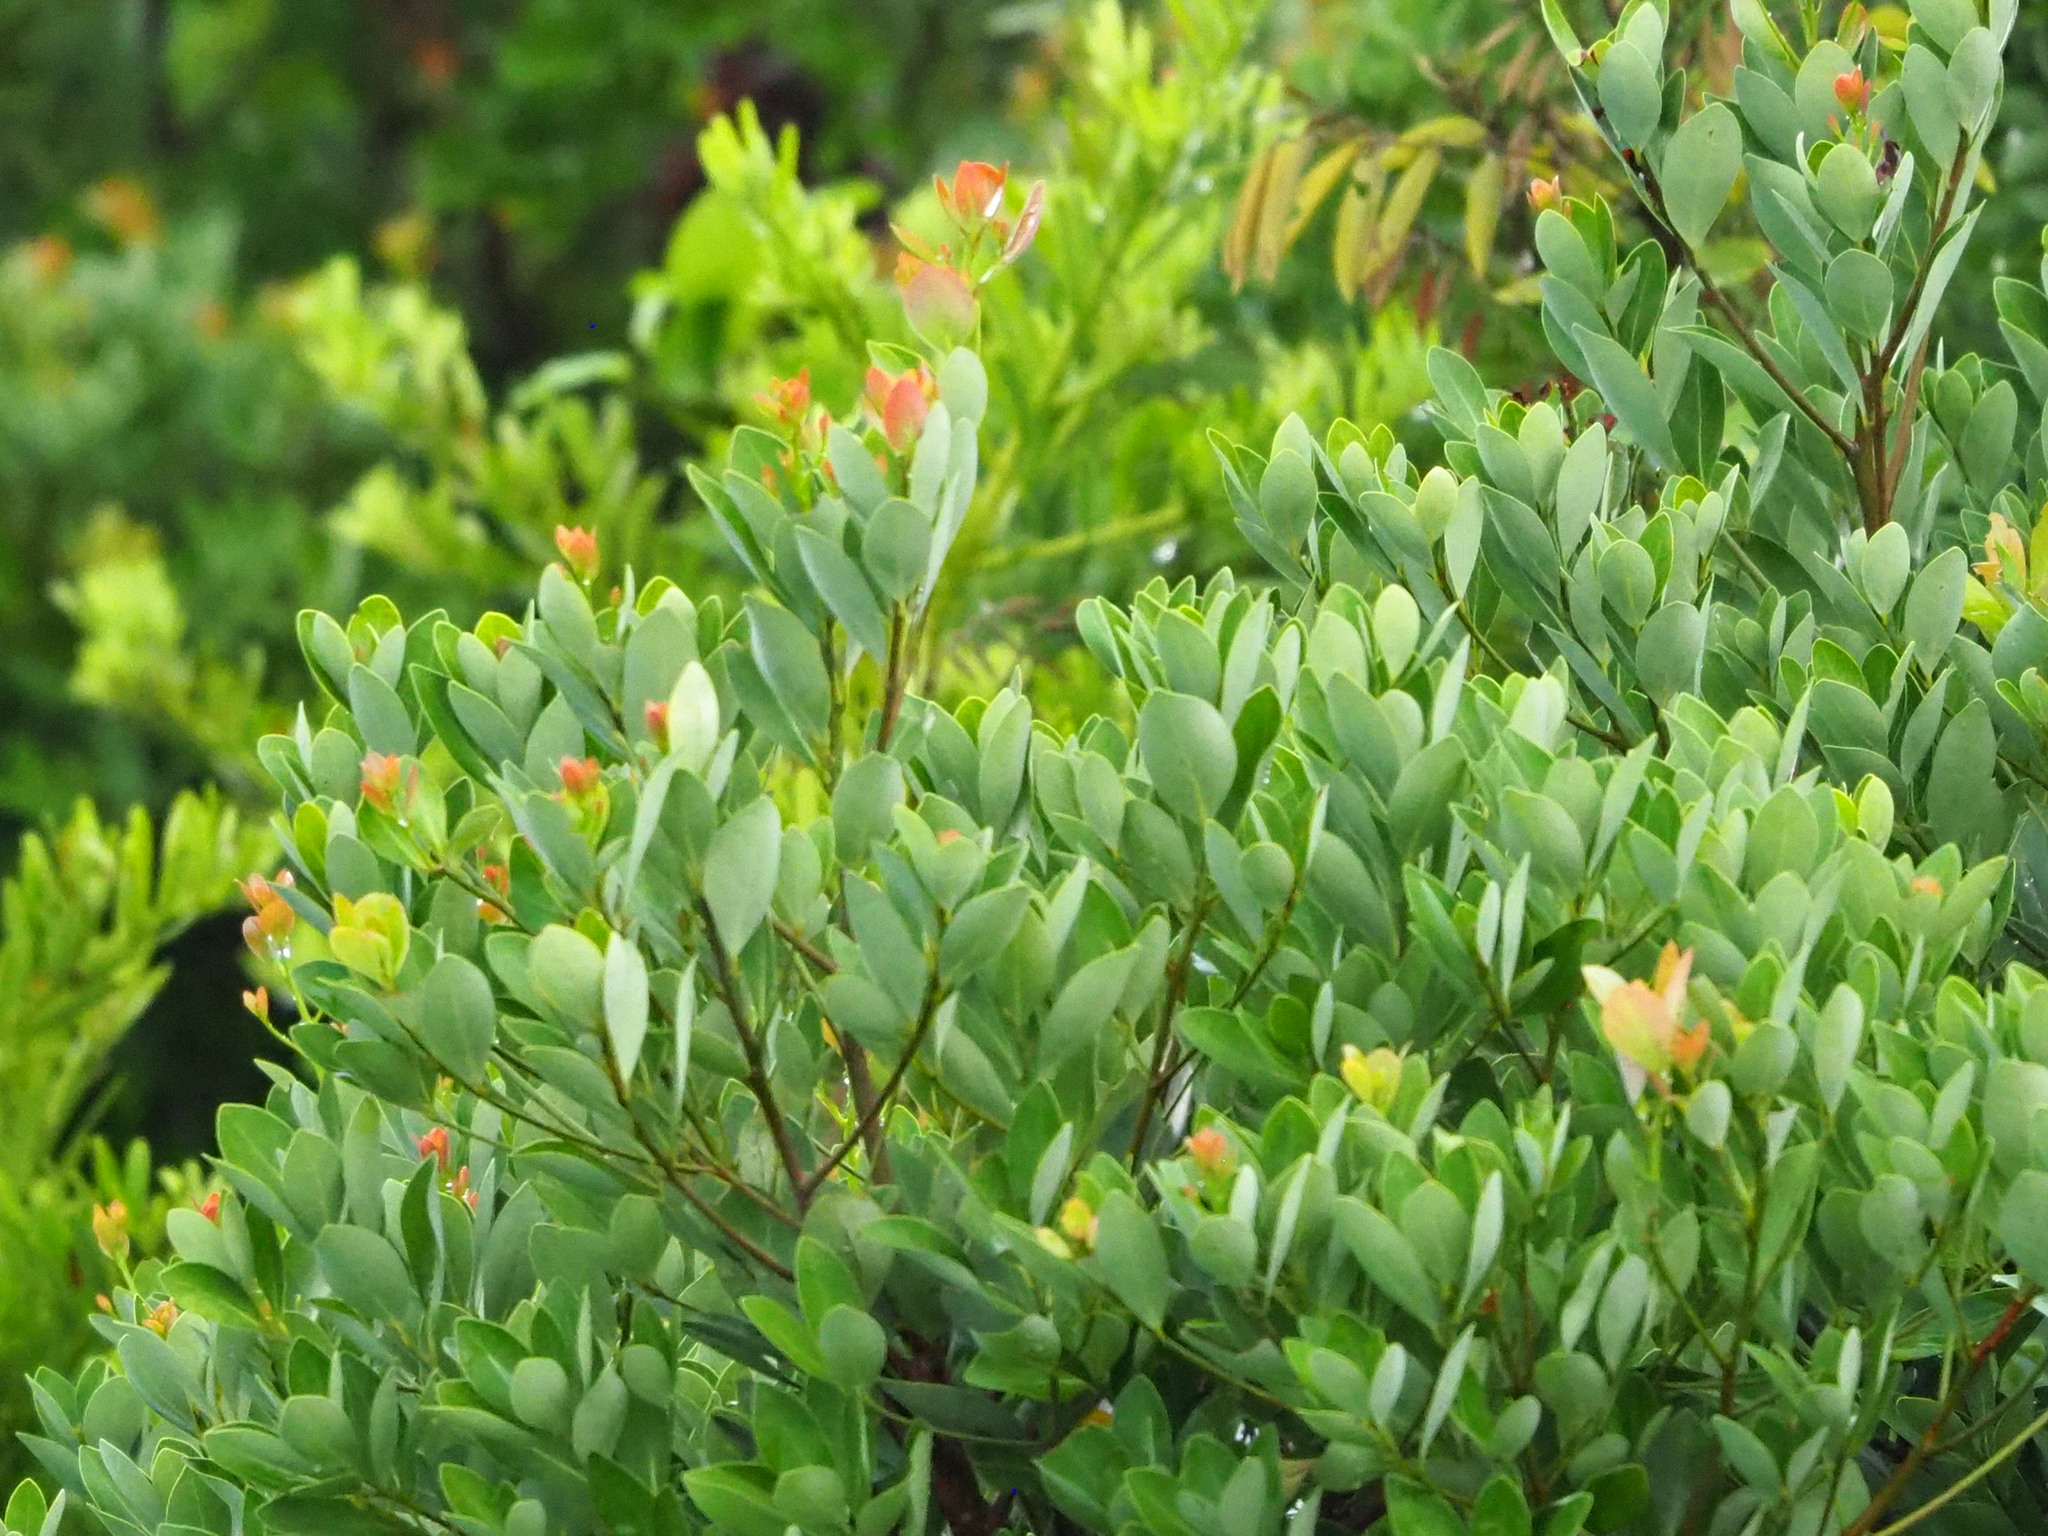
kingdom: Plantae
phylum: Tracheophyta
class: Magnoliopsida
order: Laurales
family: Lauraceae
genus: Machilus
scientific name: Machilus obovatifolia
